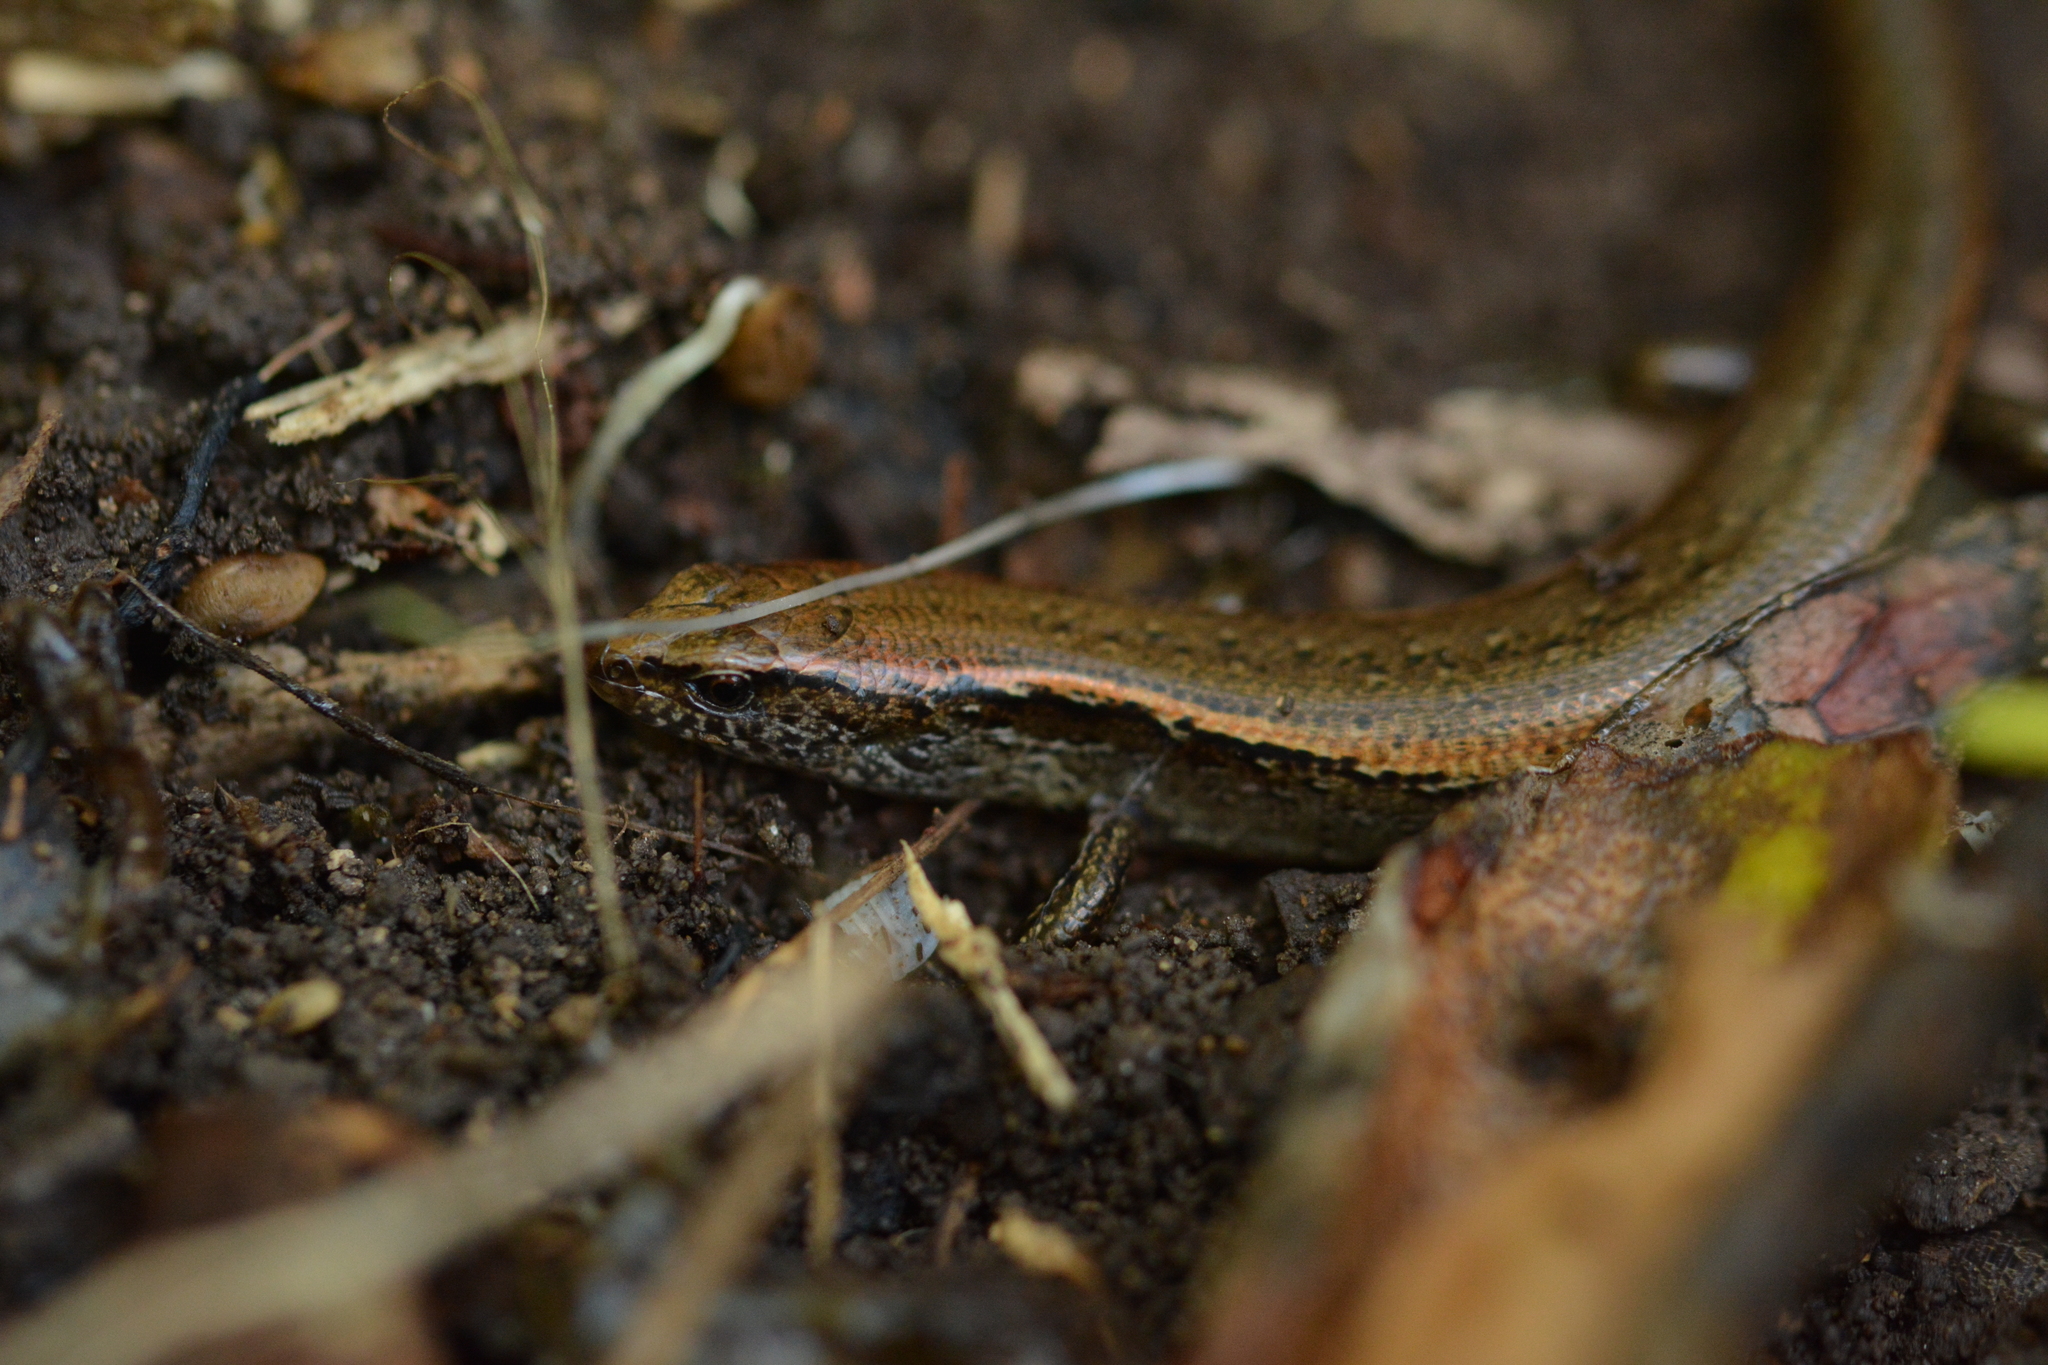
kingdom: Animalia
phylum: Chordata
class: Squamata
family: Scincidae
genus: Oligosoma
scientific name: Oligosoma aeneum
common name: Copper skink
